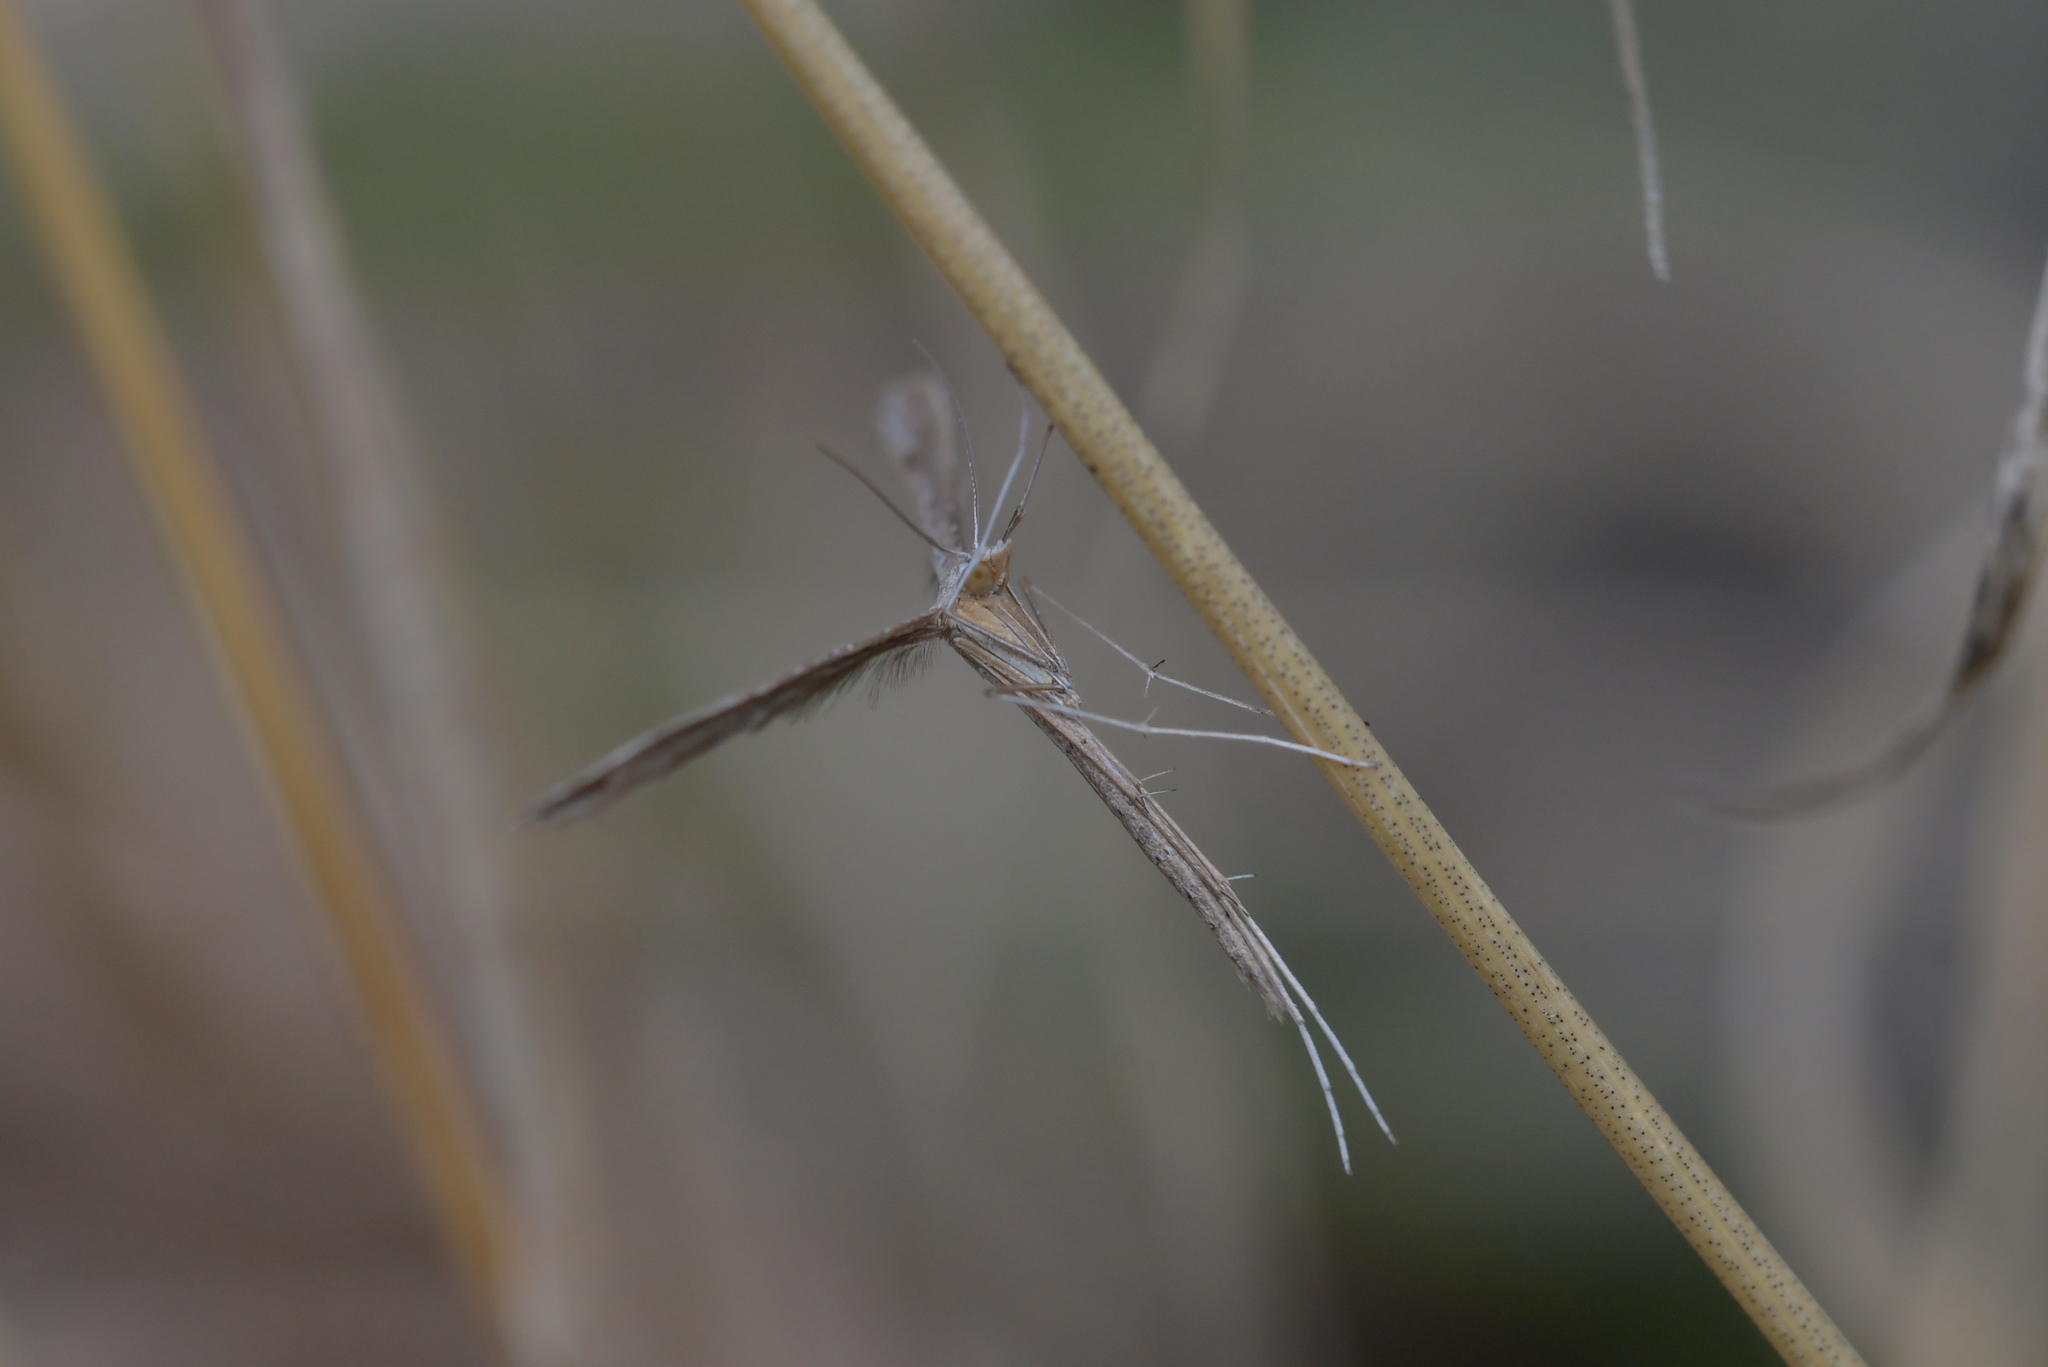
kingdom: Animalia
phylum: Arthropoda
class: Insecta
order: Lepidoptera
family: Pterophoridae
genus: Stenoptilia
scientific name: Stenoptilia zophodactylus
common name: Dowdy plume
